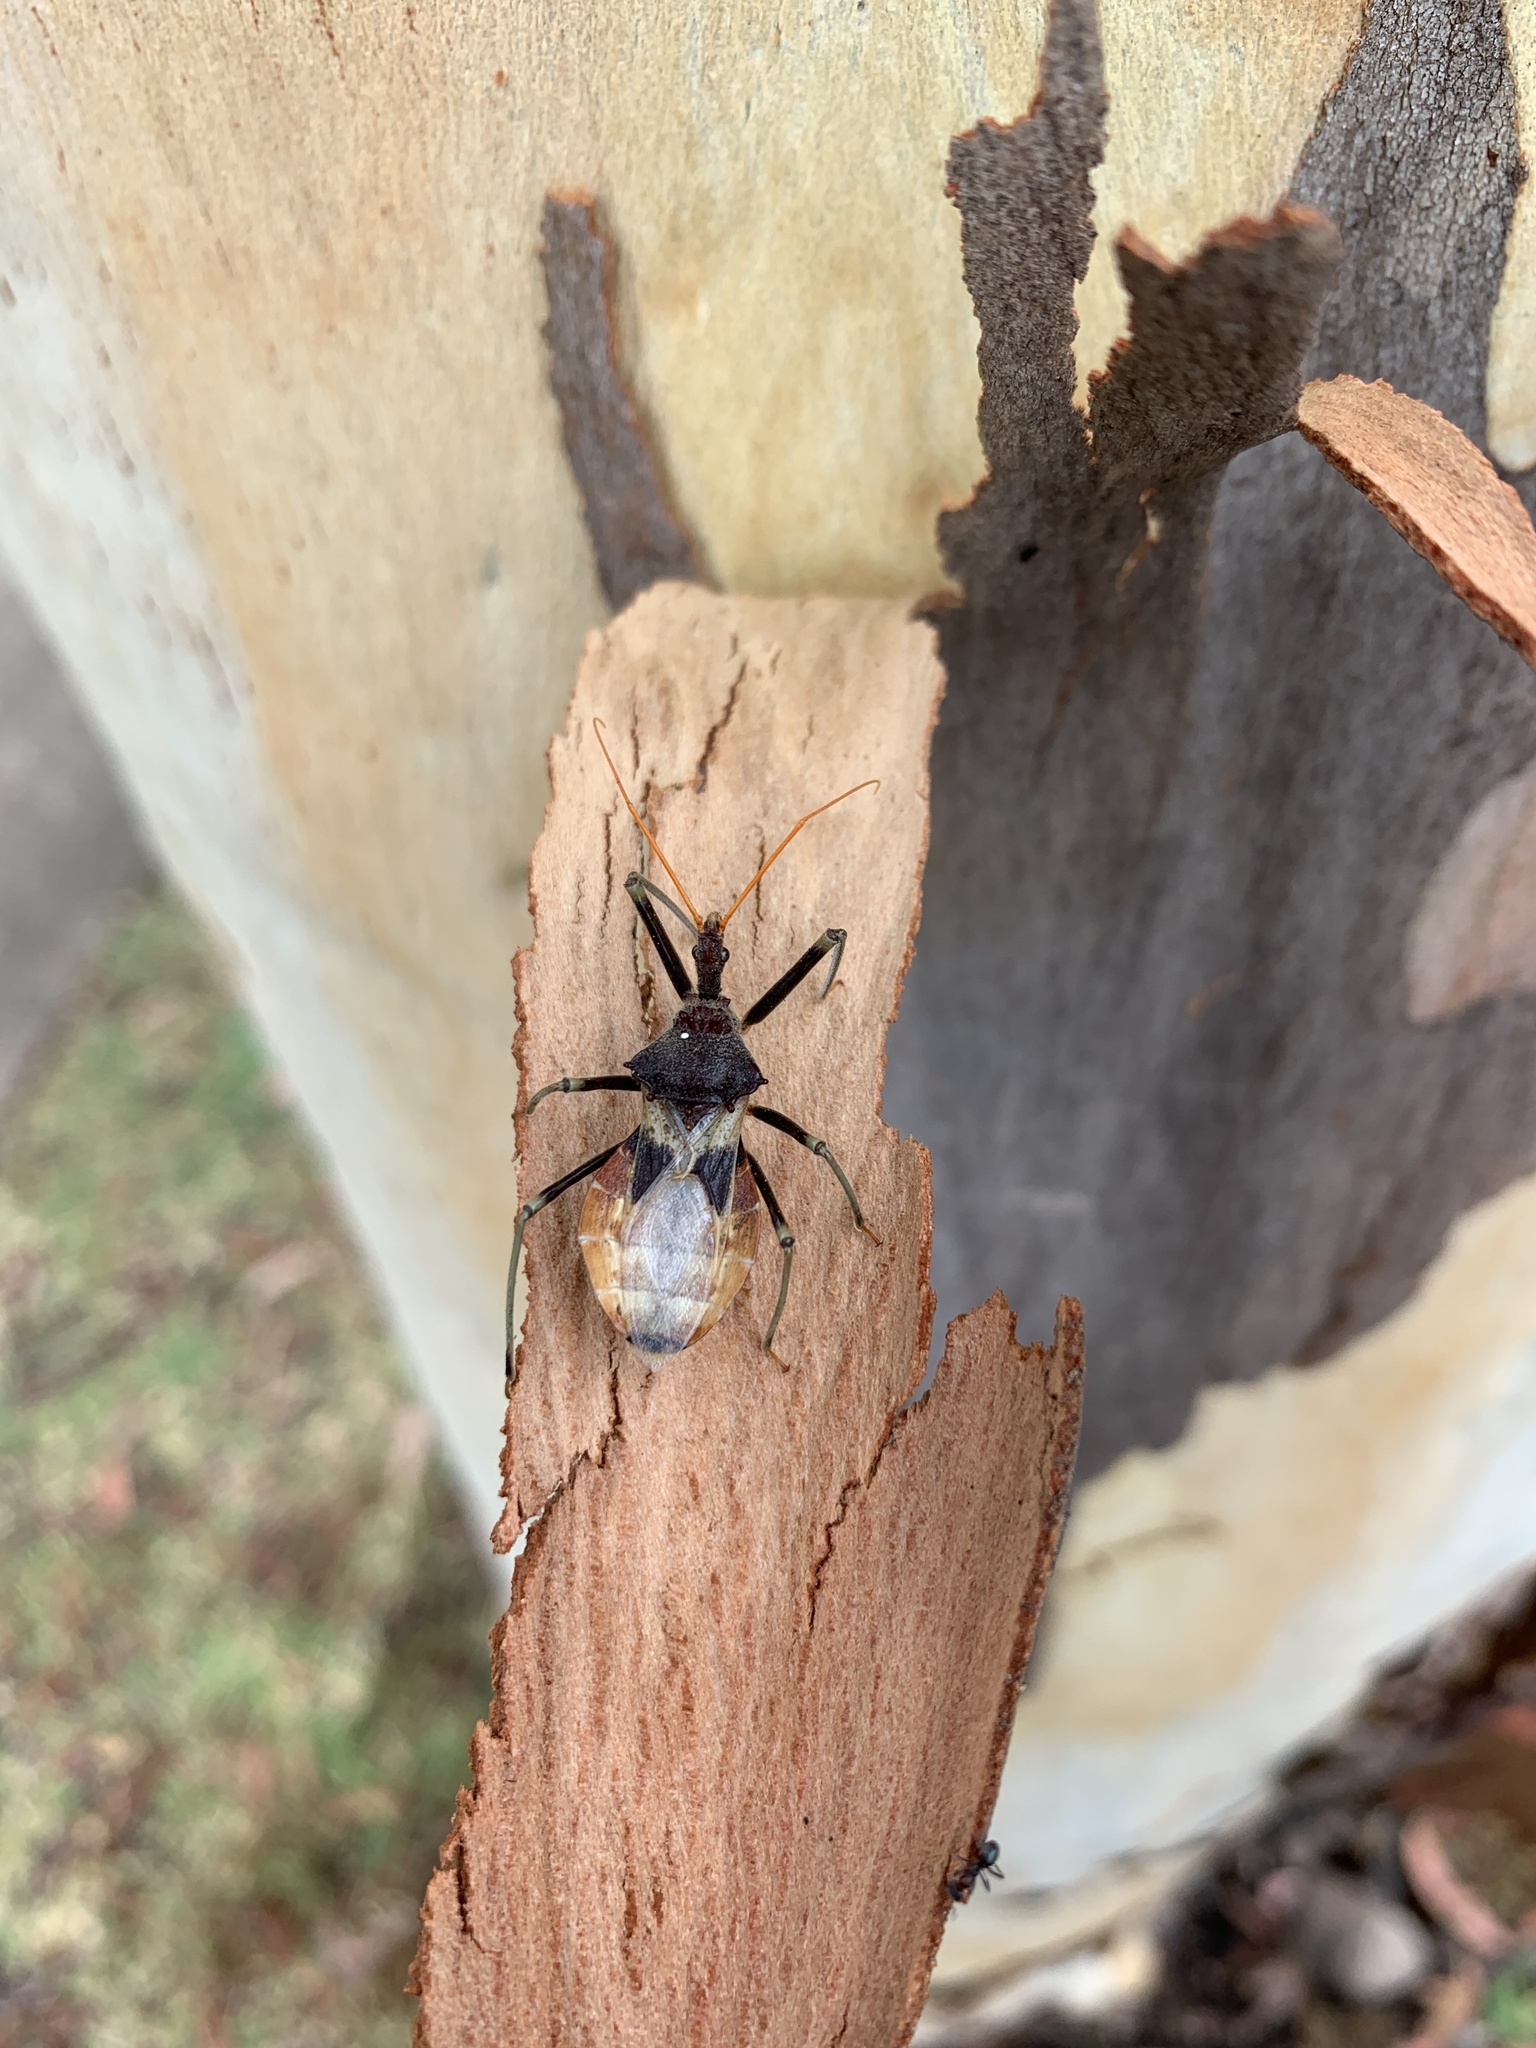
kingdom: Animalia
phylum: Arthropoda
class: Insecta
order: Hemiptera
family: Reduviidae
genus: Pristhesancus
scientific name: Pristhesancus plagipennis
